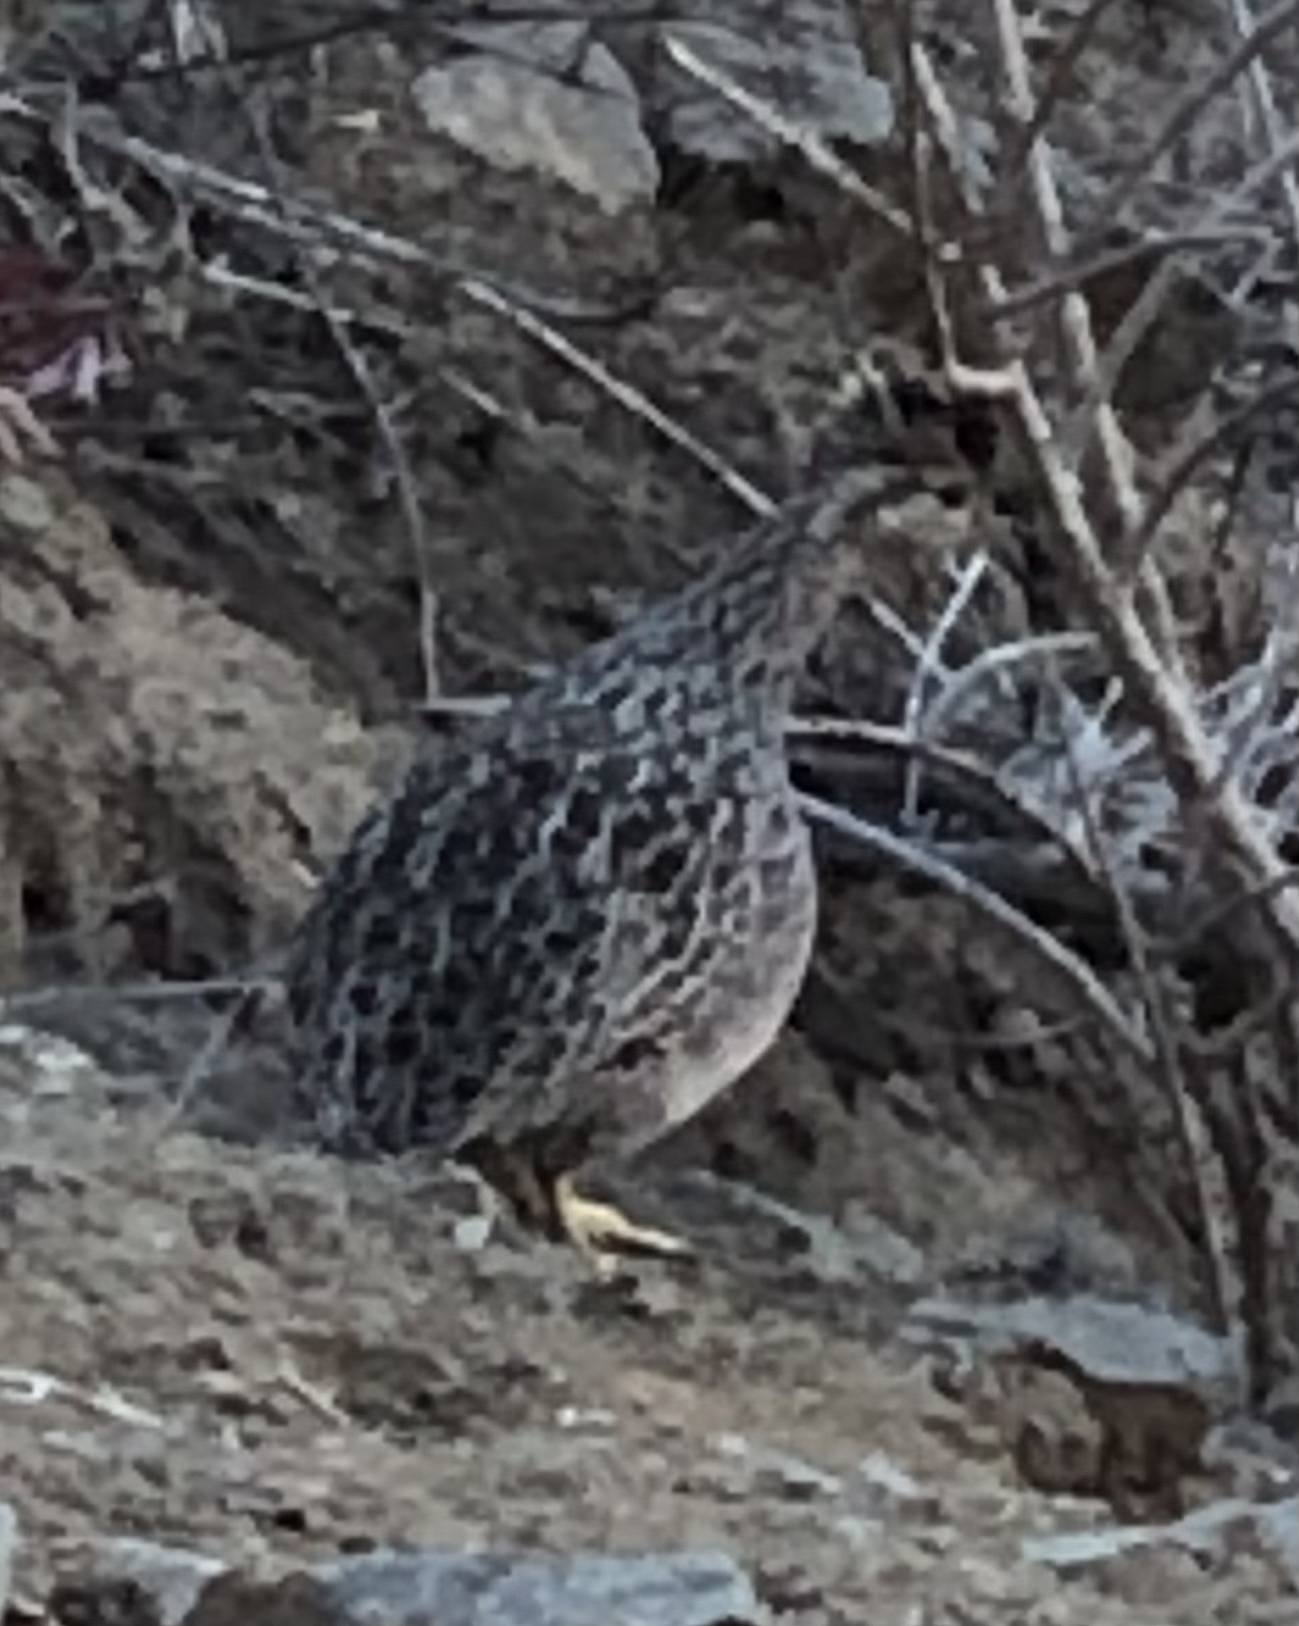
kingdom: Animalia
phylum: Chordata
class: Aves
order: Tinamiformes
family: Tinamidae
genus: Nothoprocta
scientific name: Nothoprocta perdicaria
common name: Chilean tinamou
